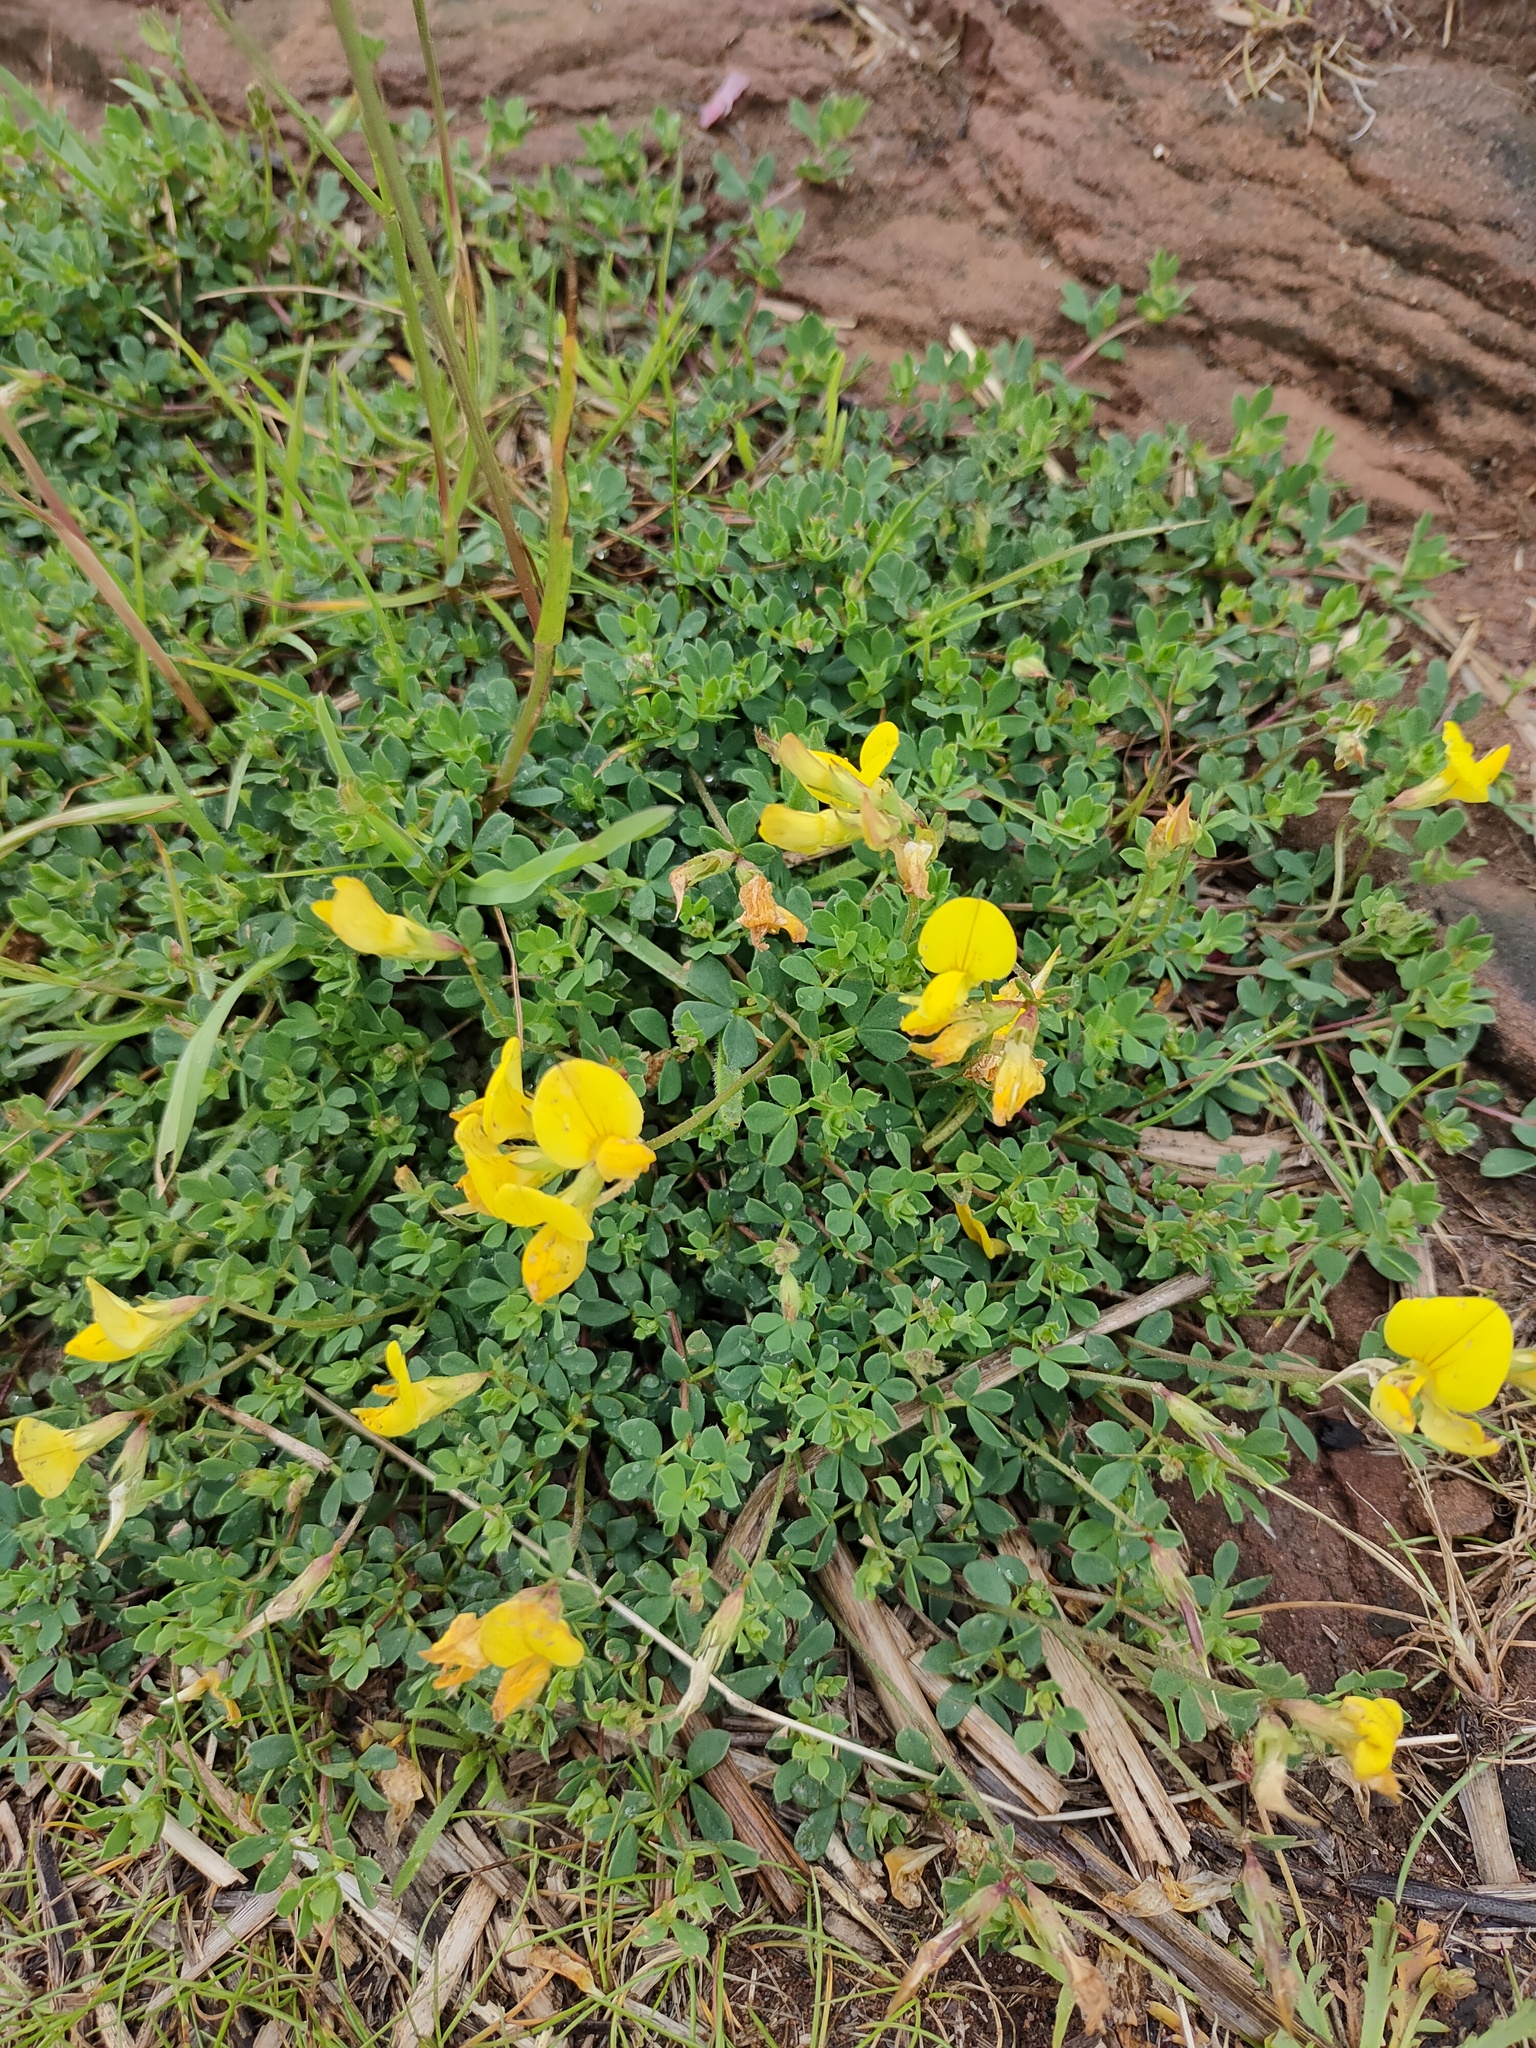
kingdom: Plantae
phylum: Tracheophyta
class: Magnoliopsida
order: Fabales
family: Fabaceae
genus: Lotus
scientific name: Lotus corniculatus
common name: Common bird's-foot-trefoil
